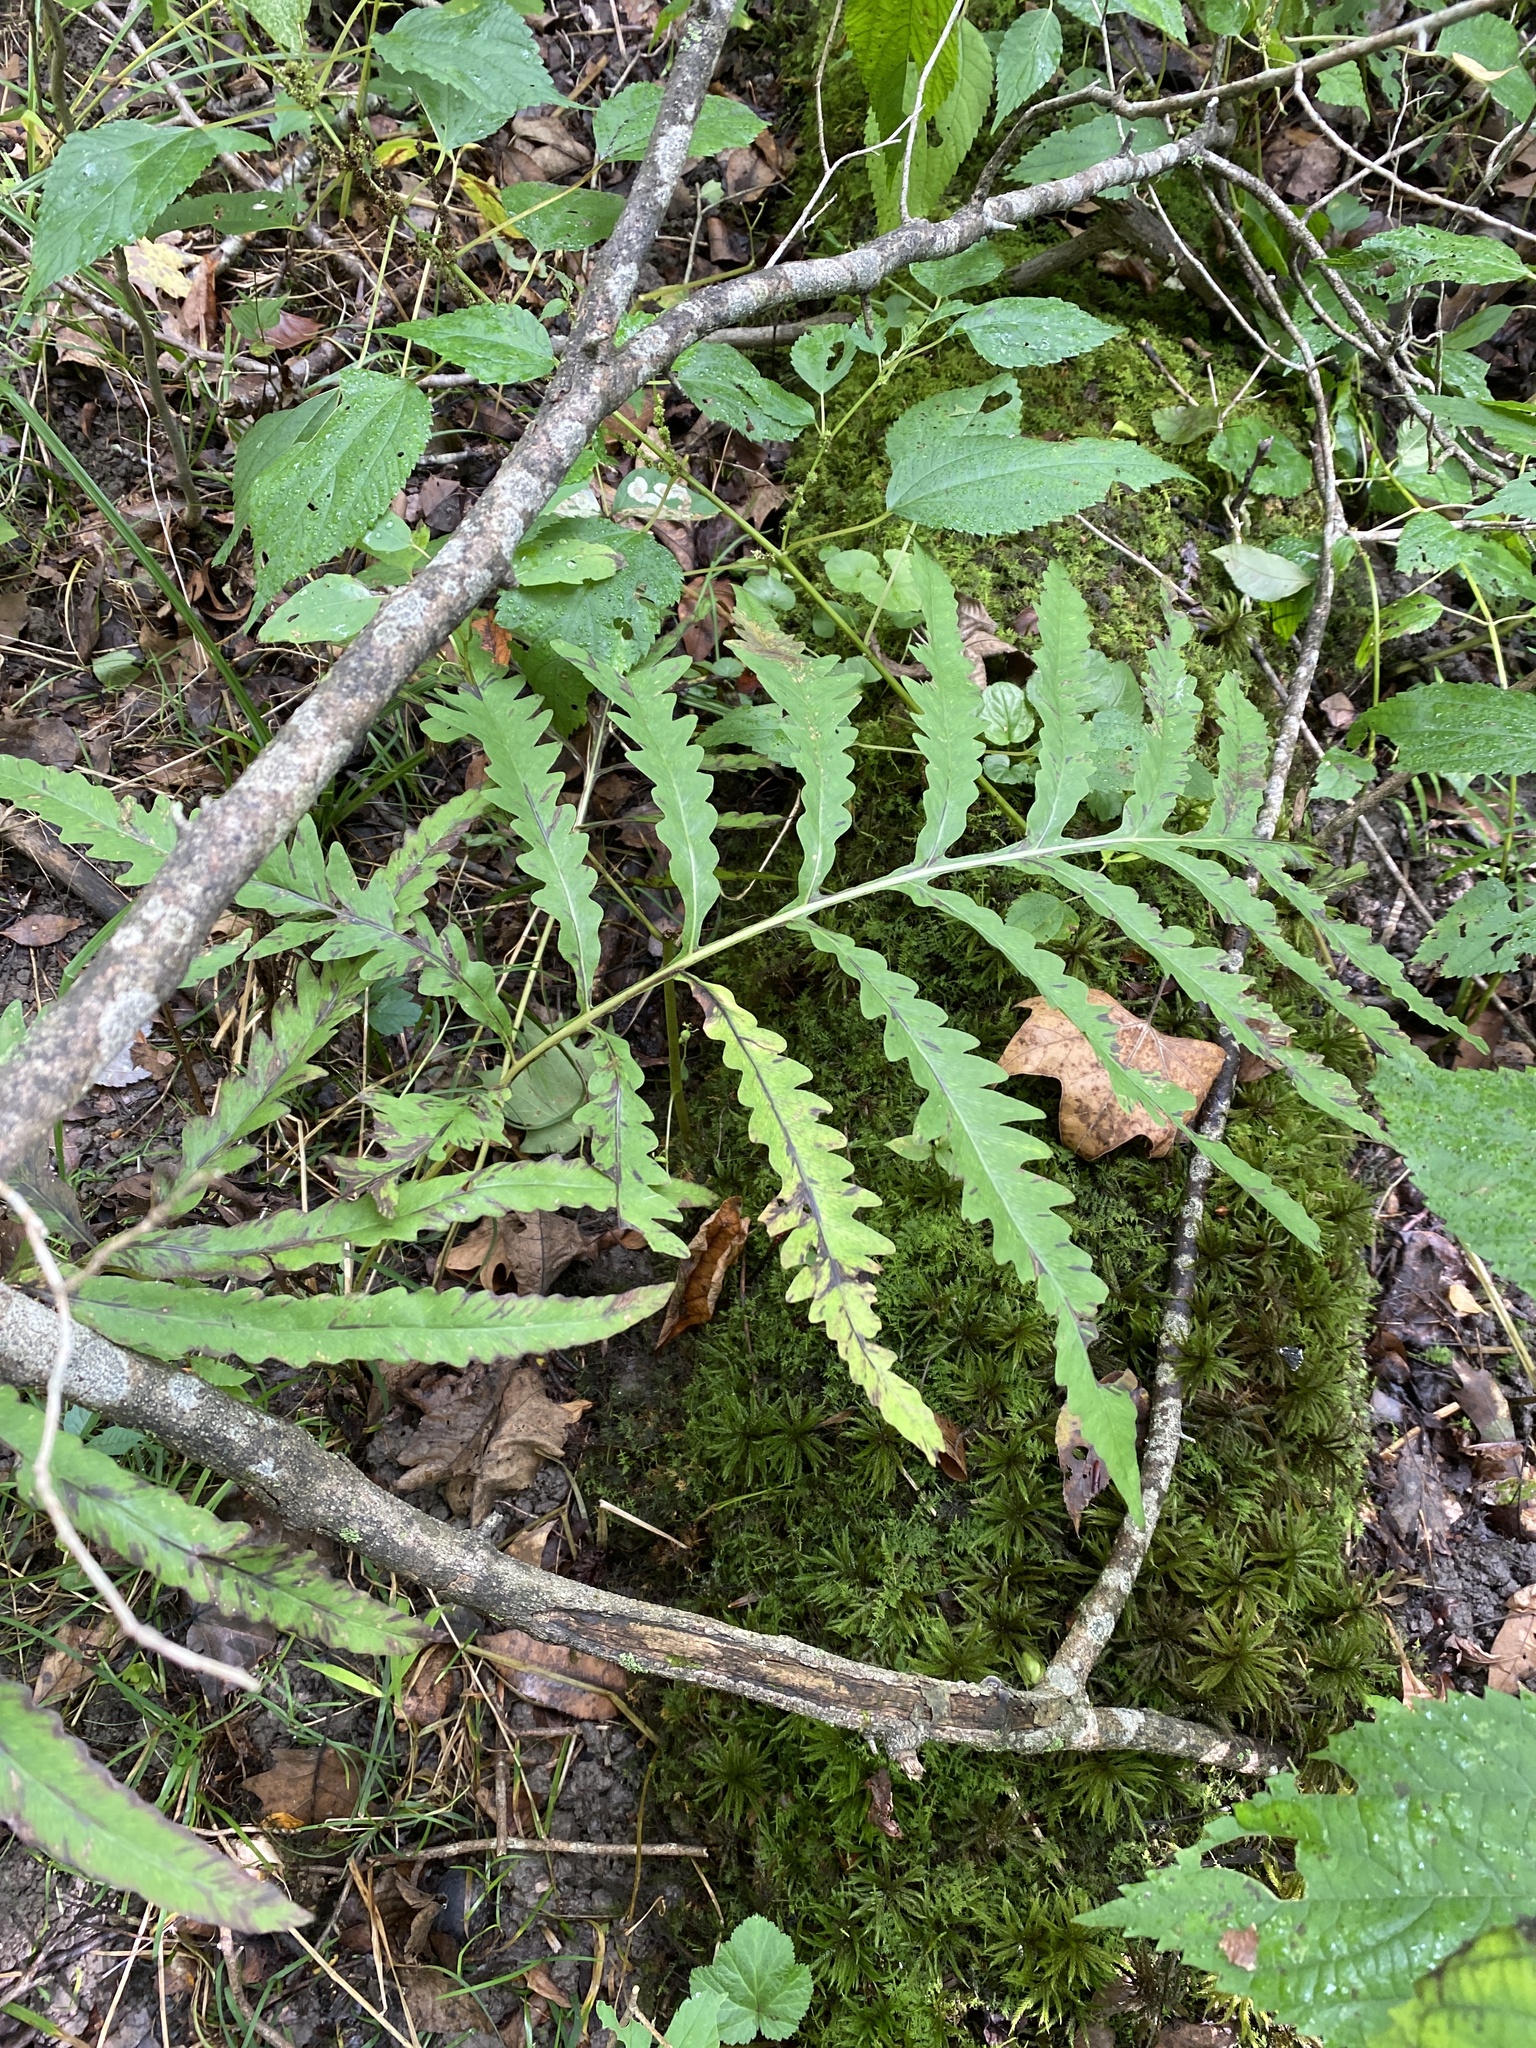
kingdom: Plantae
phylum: Tracheophyta
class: Polypodiopsida
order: Polypodiales
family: Onocleaceae
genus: Onoclea
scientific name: Onoclea sensibilis
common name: Sensitive fern
